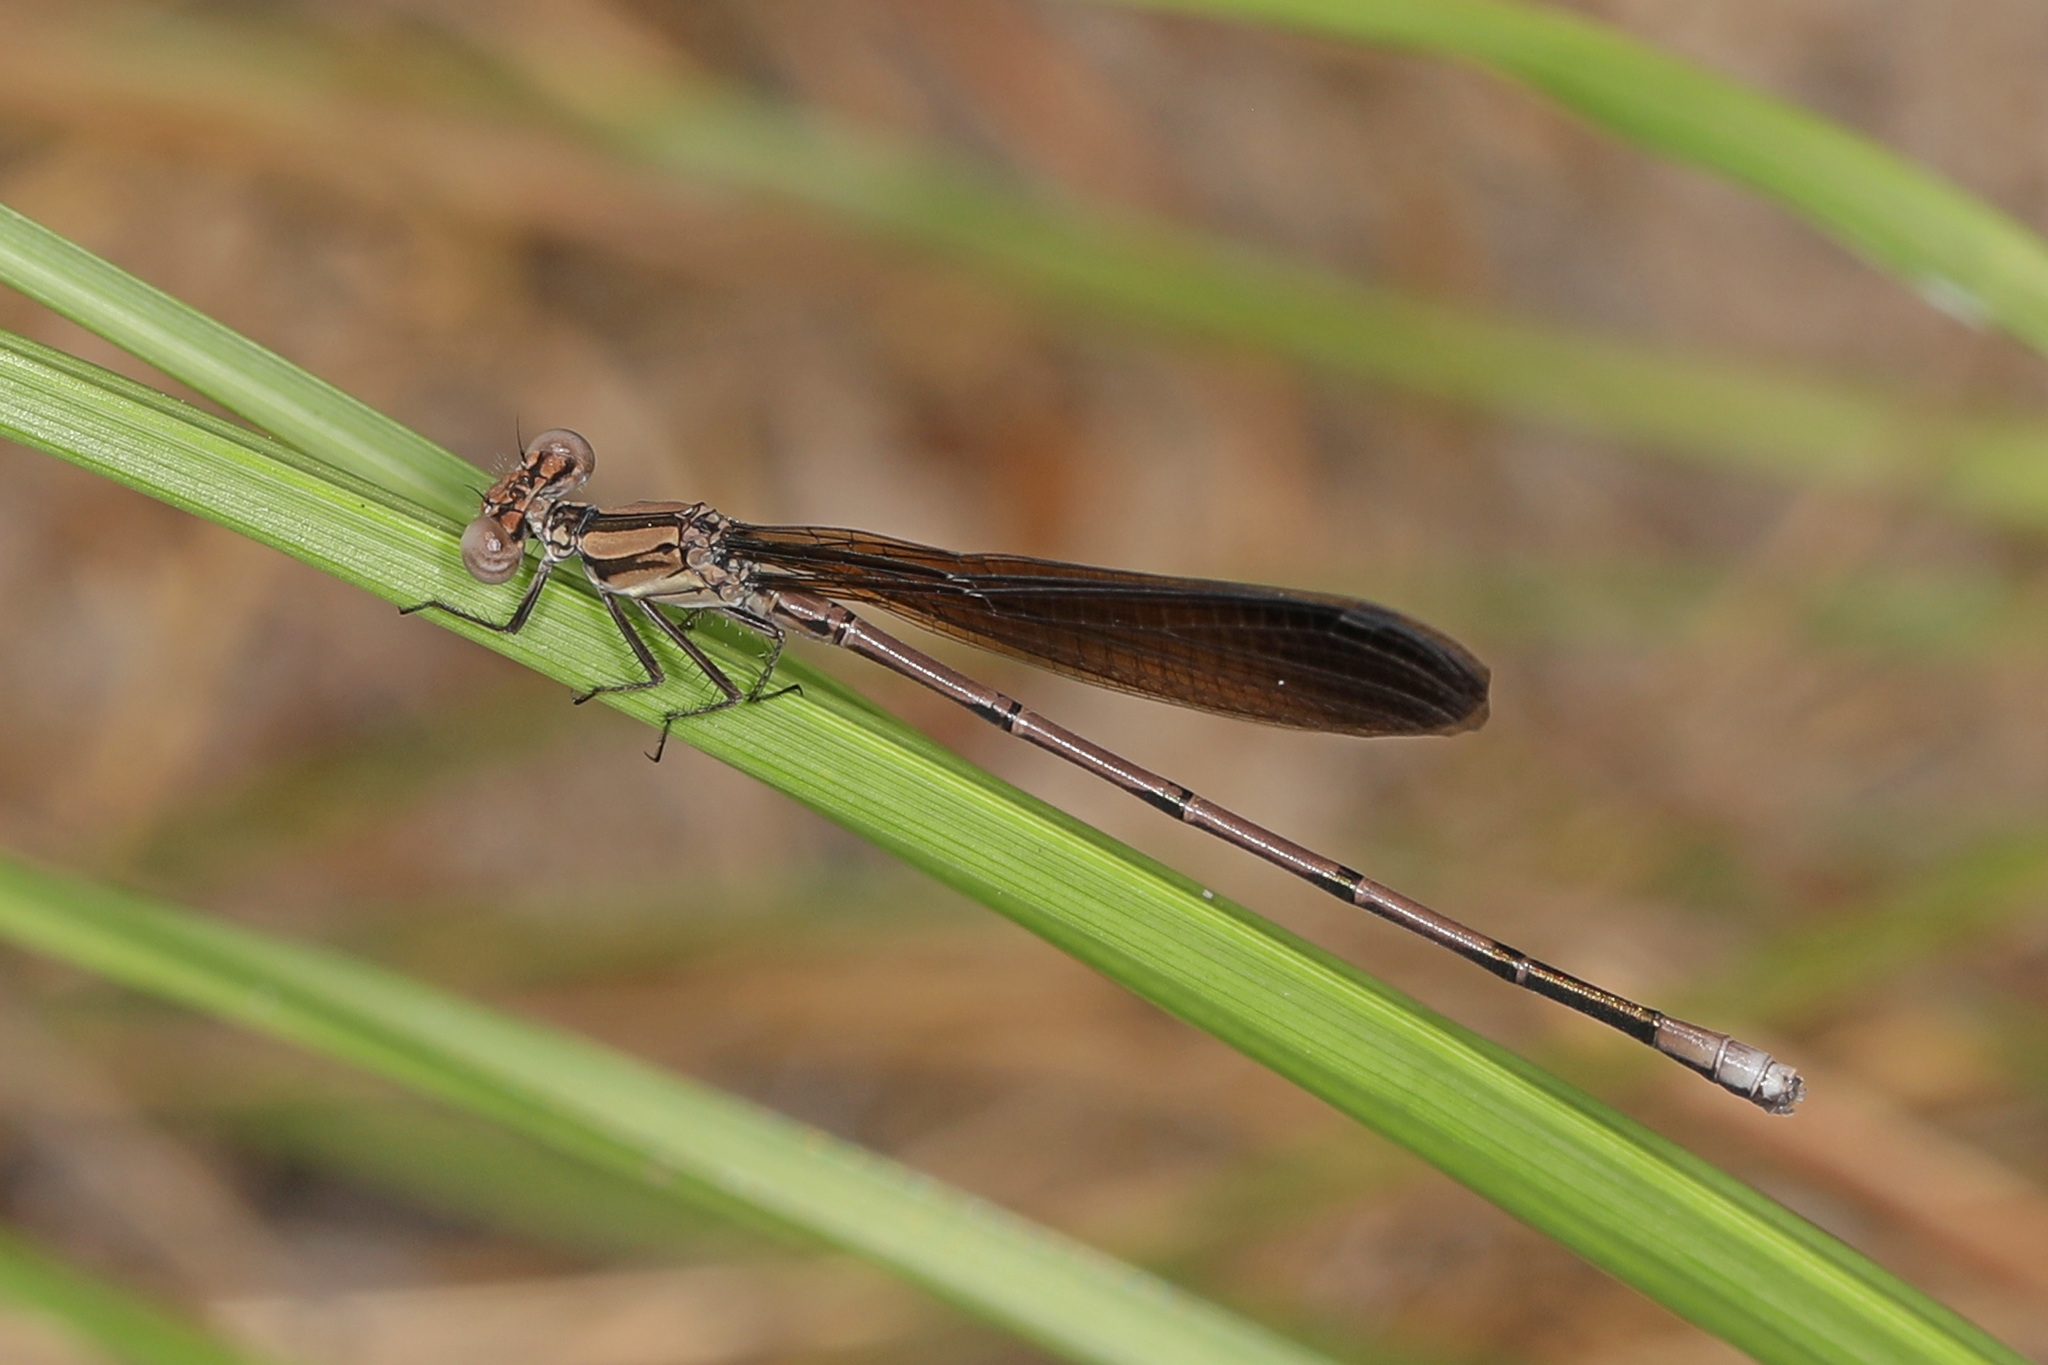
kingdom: Animalia
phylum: Arthropoda
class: Insecta
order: Odonata
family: Coenagrionidae
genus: Argia
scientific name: Argia fumipennis
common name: Variable dancer
